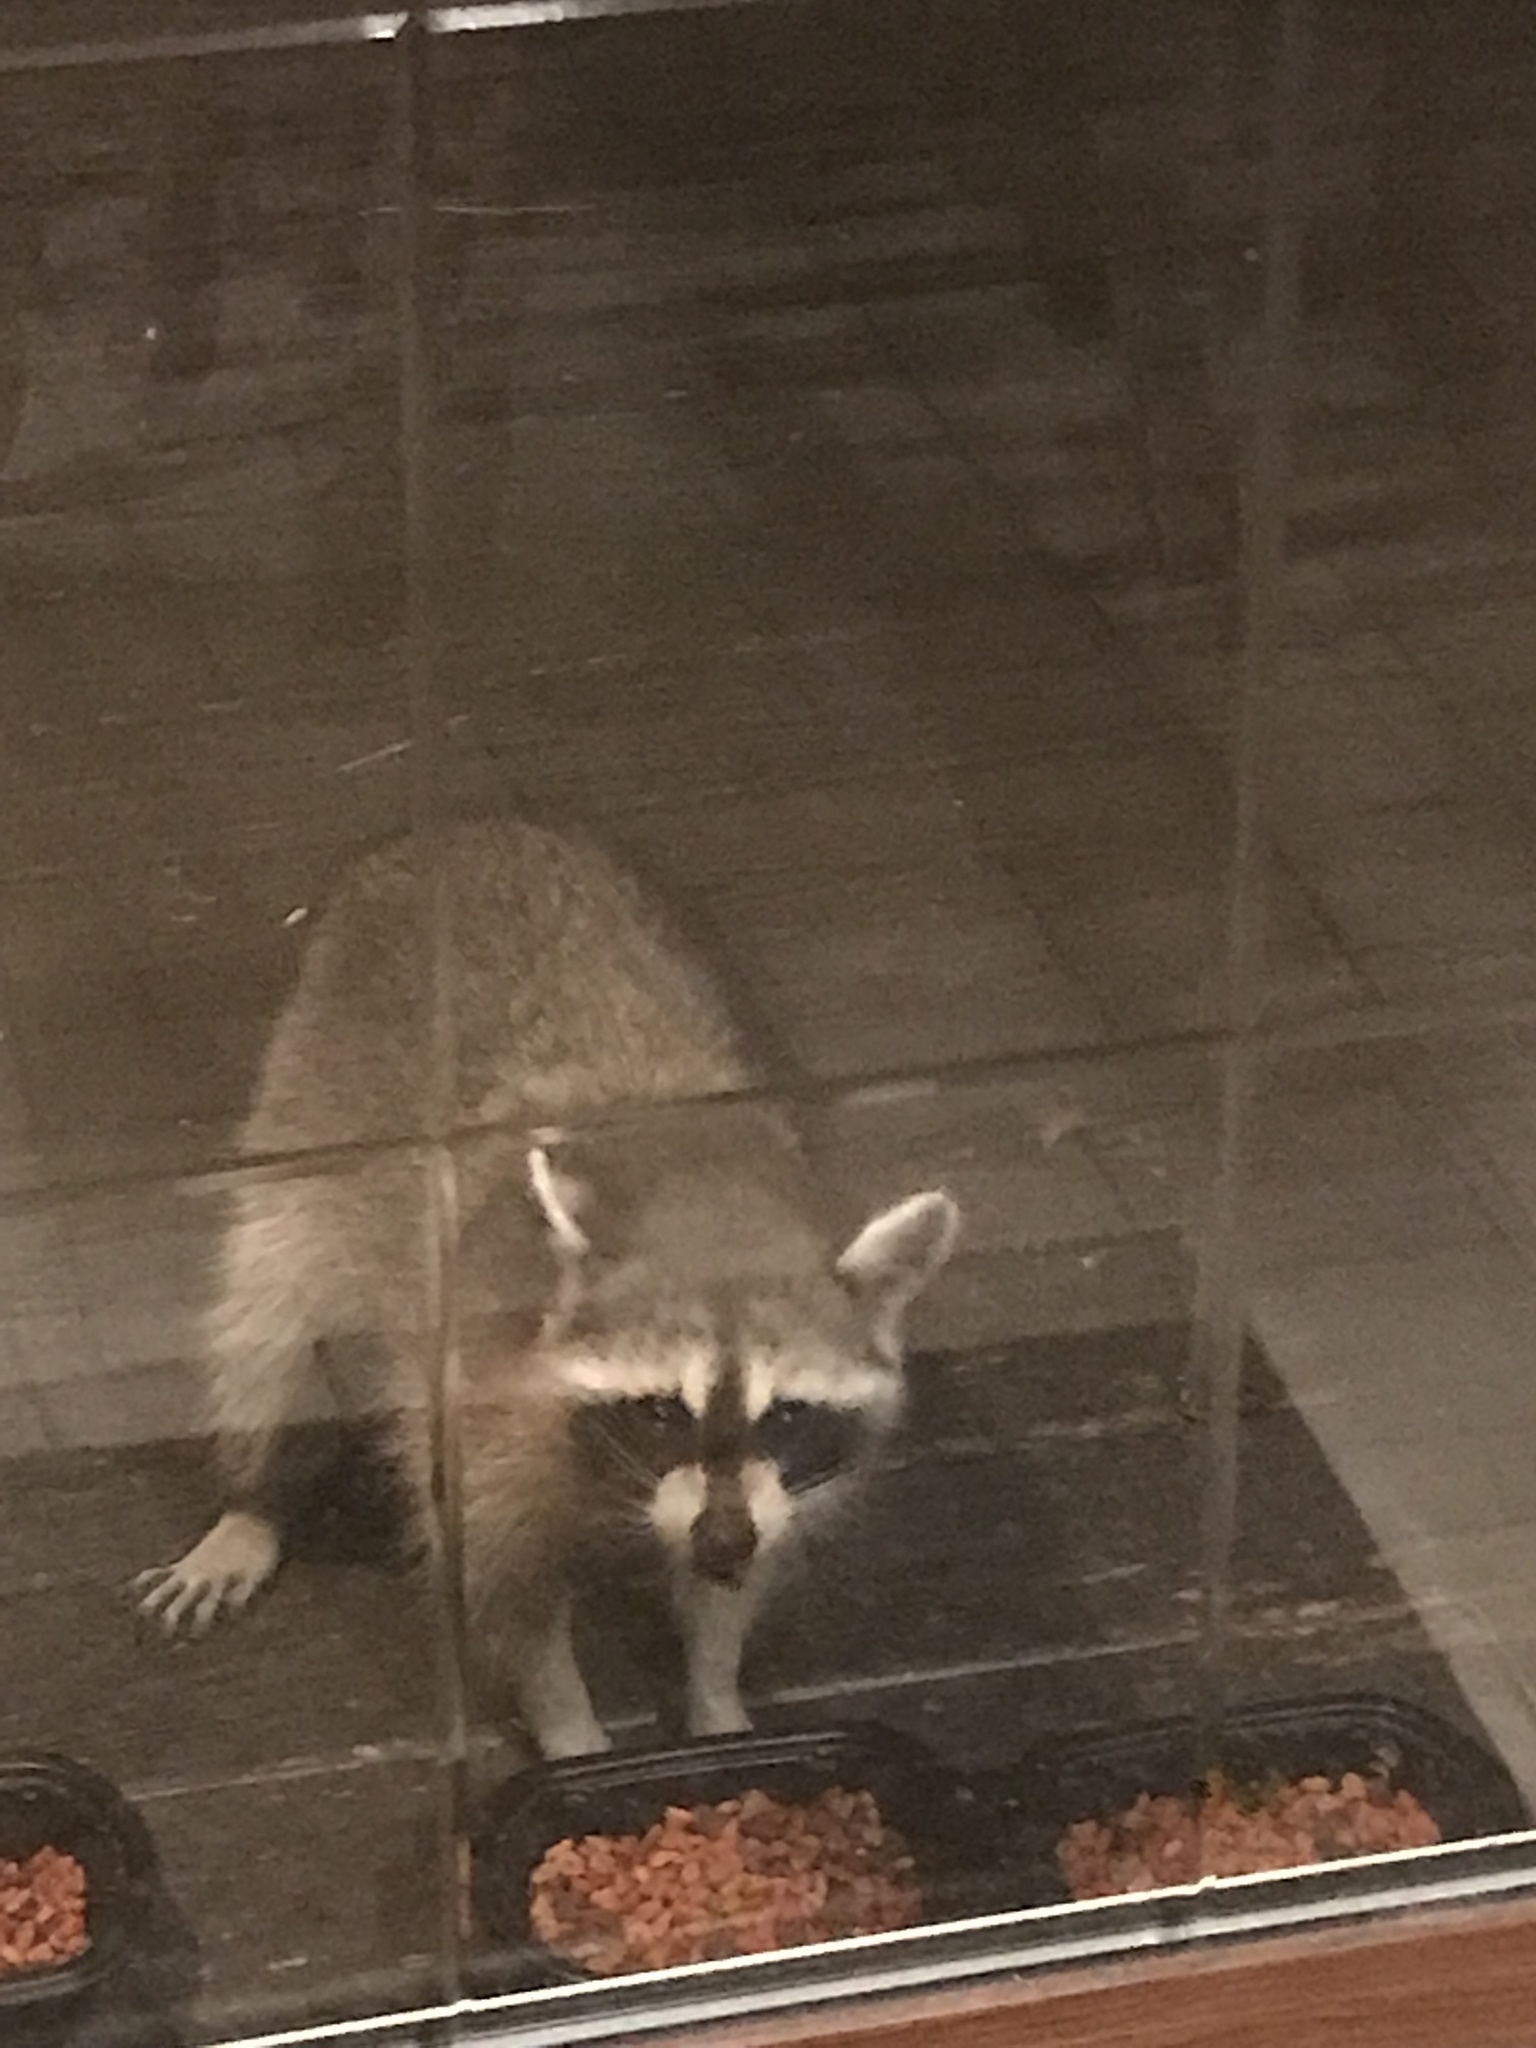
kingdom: Animalia
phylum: Chordata
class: Mammalia
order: Carnivora
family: Procyonidae
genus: Procyon
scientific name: Procyon lotor
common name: Raccoon
